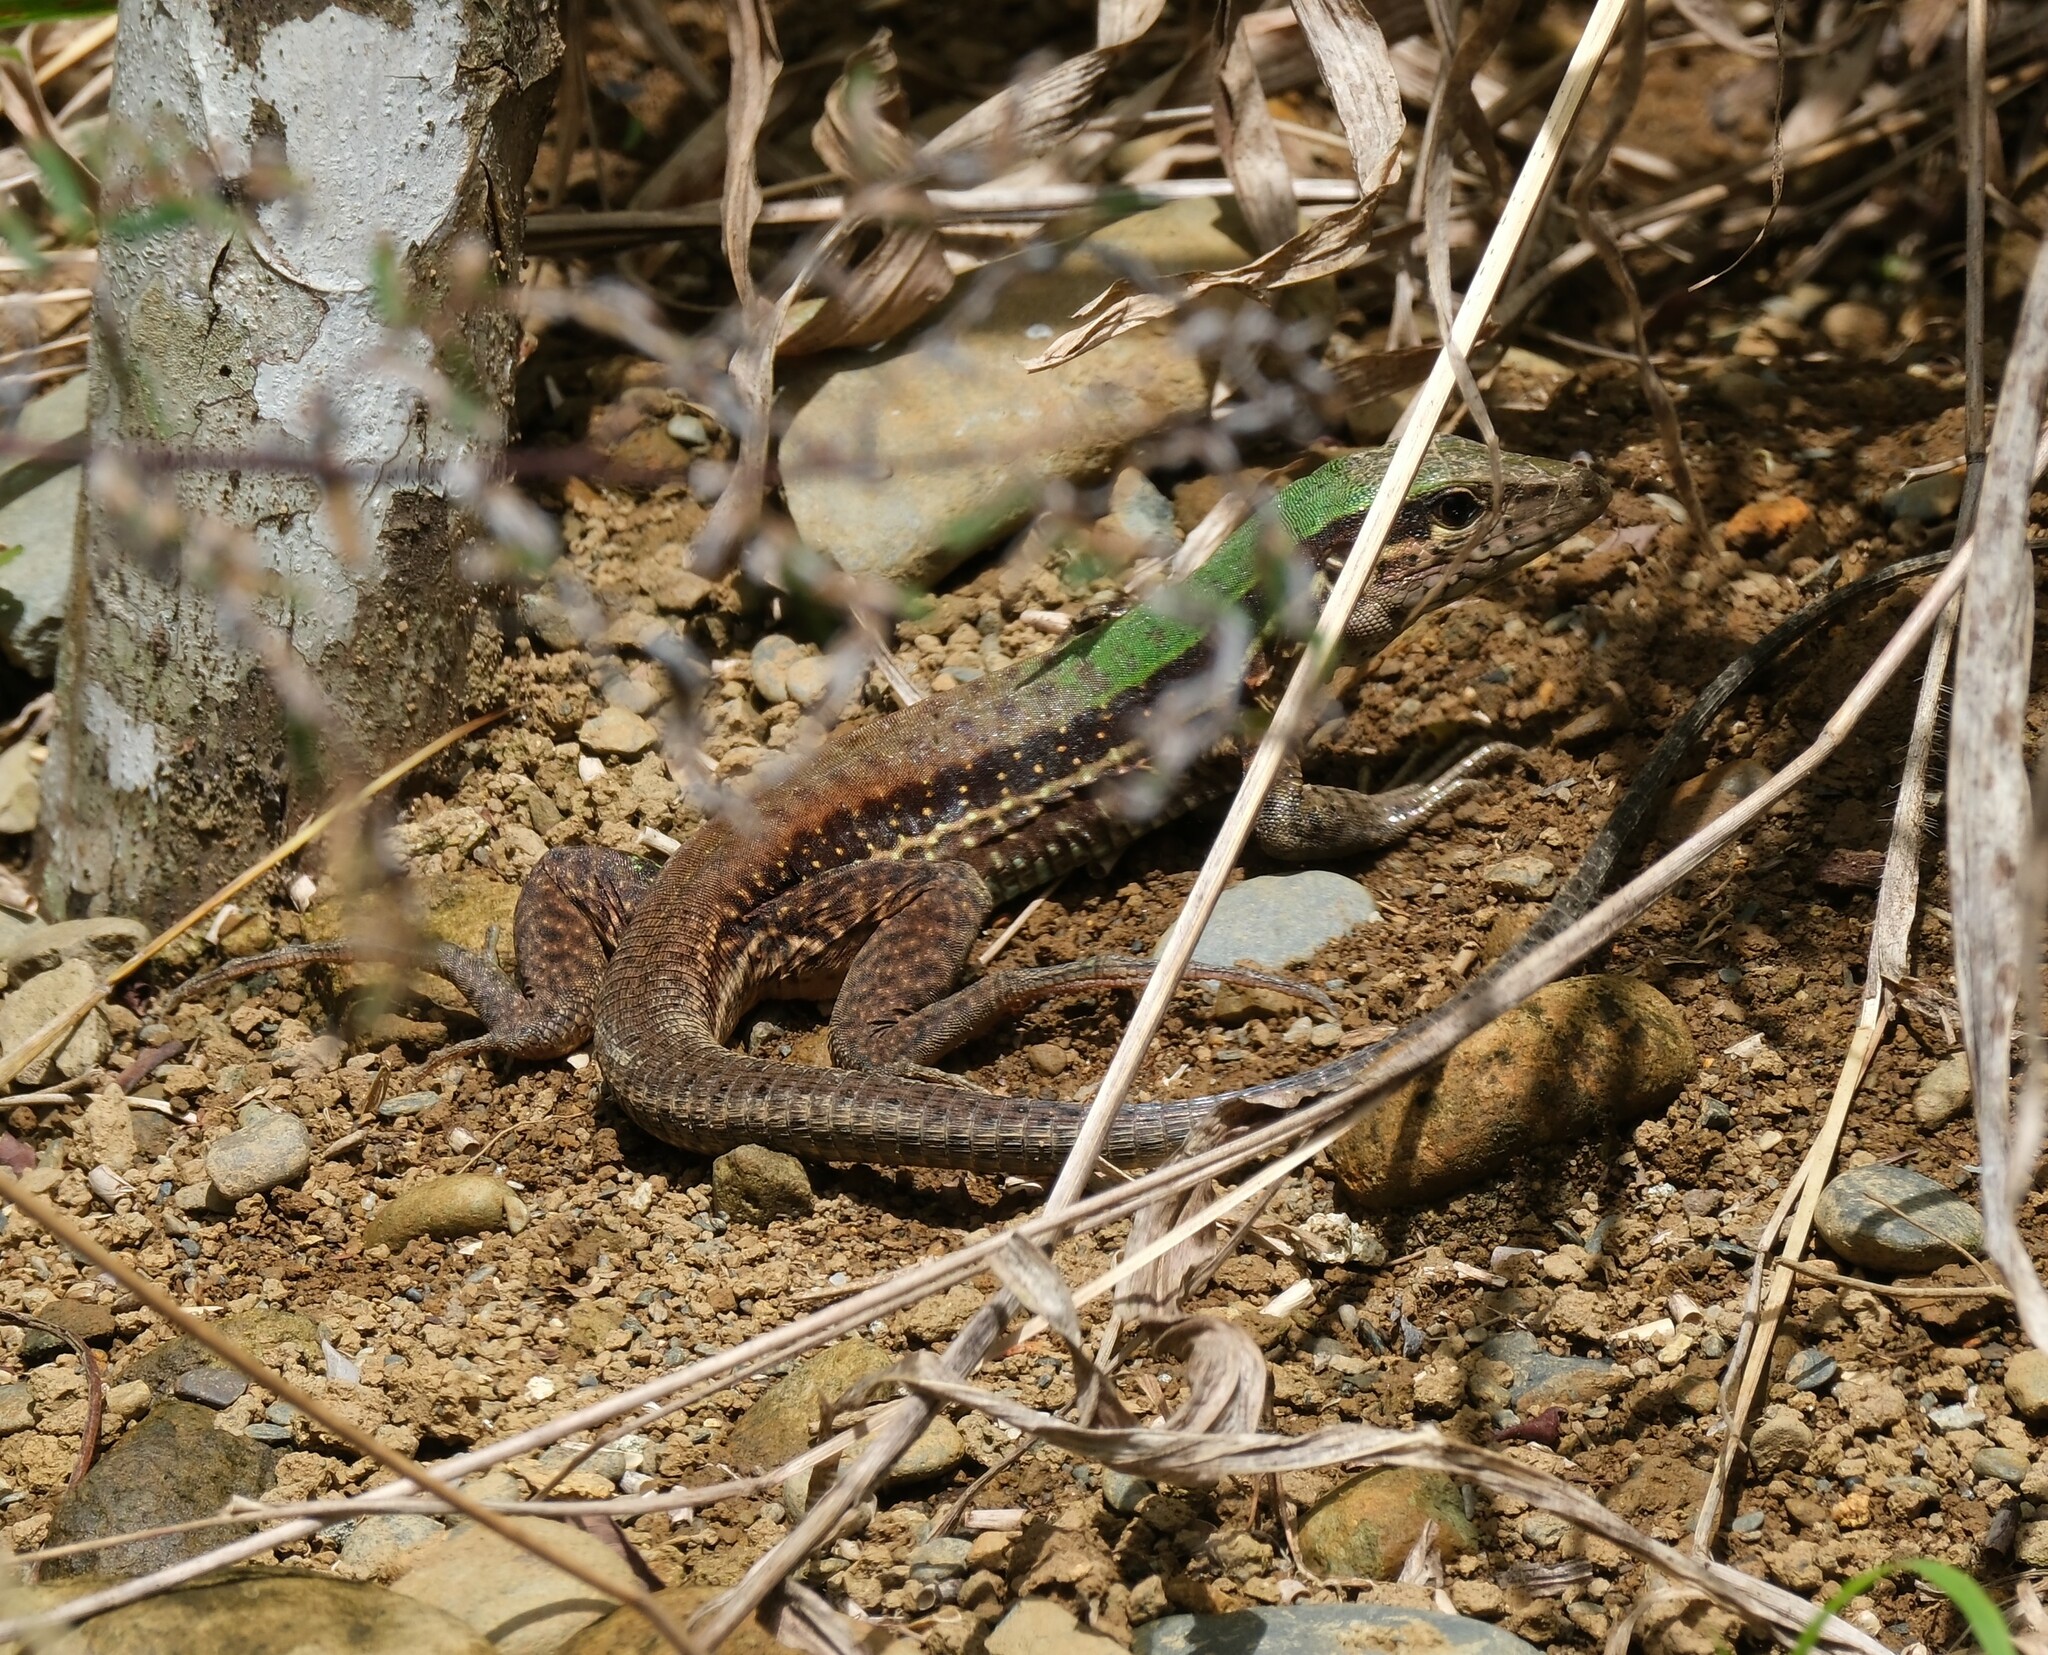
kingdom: Animalia
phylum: Chordata
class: Squamata
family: Teiidae
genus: Ameiva
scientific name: Ameiva ameiva
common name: Giant ameiva
